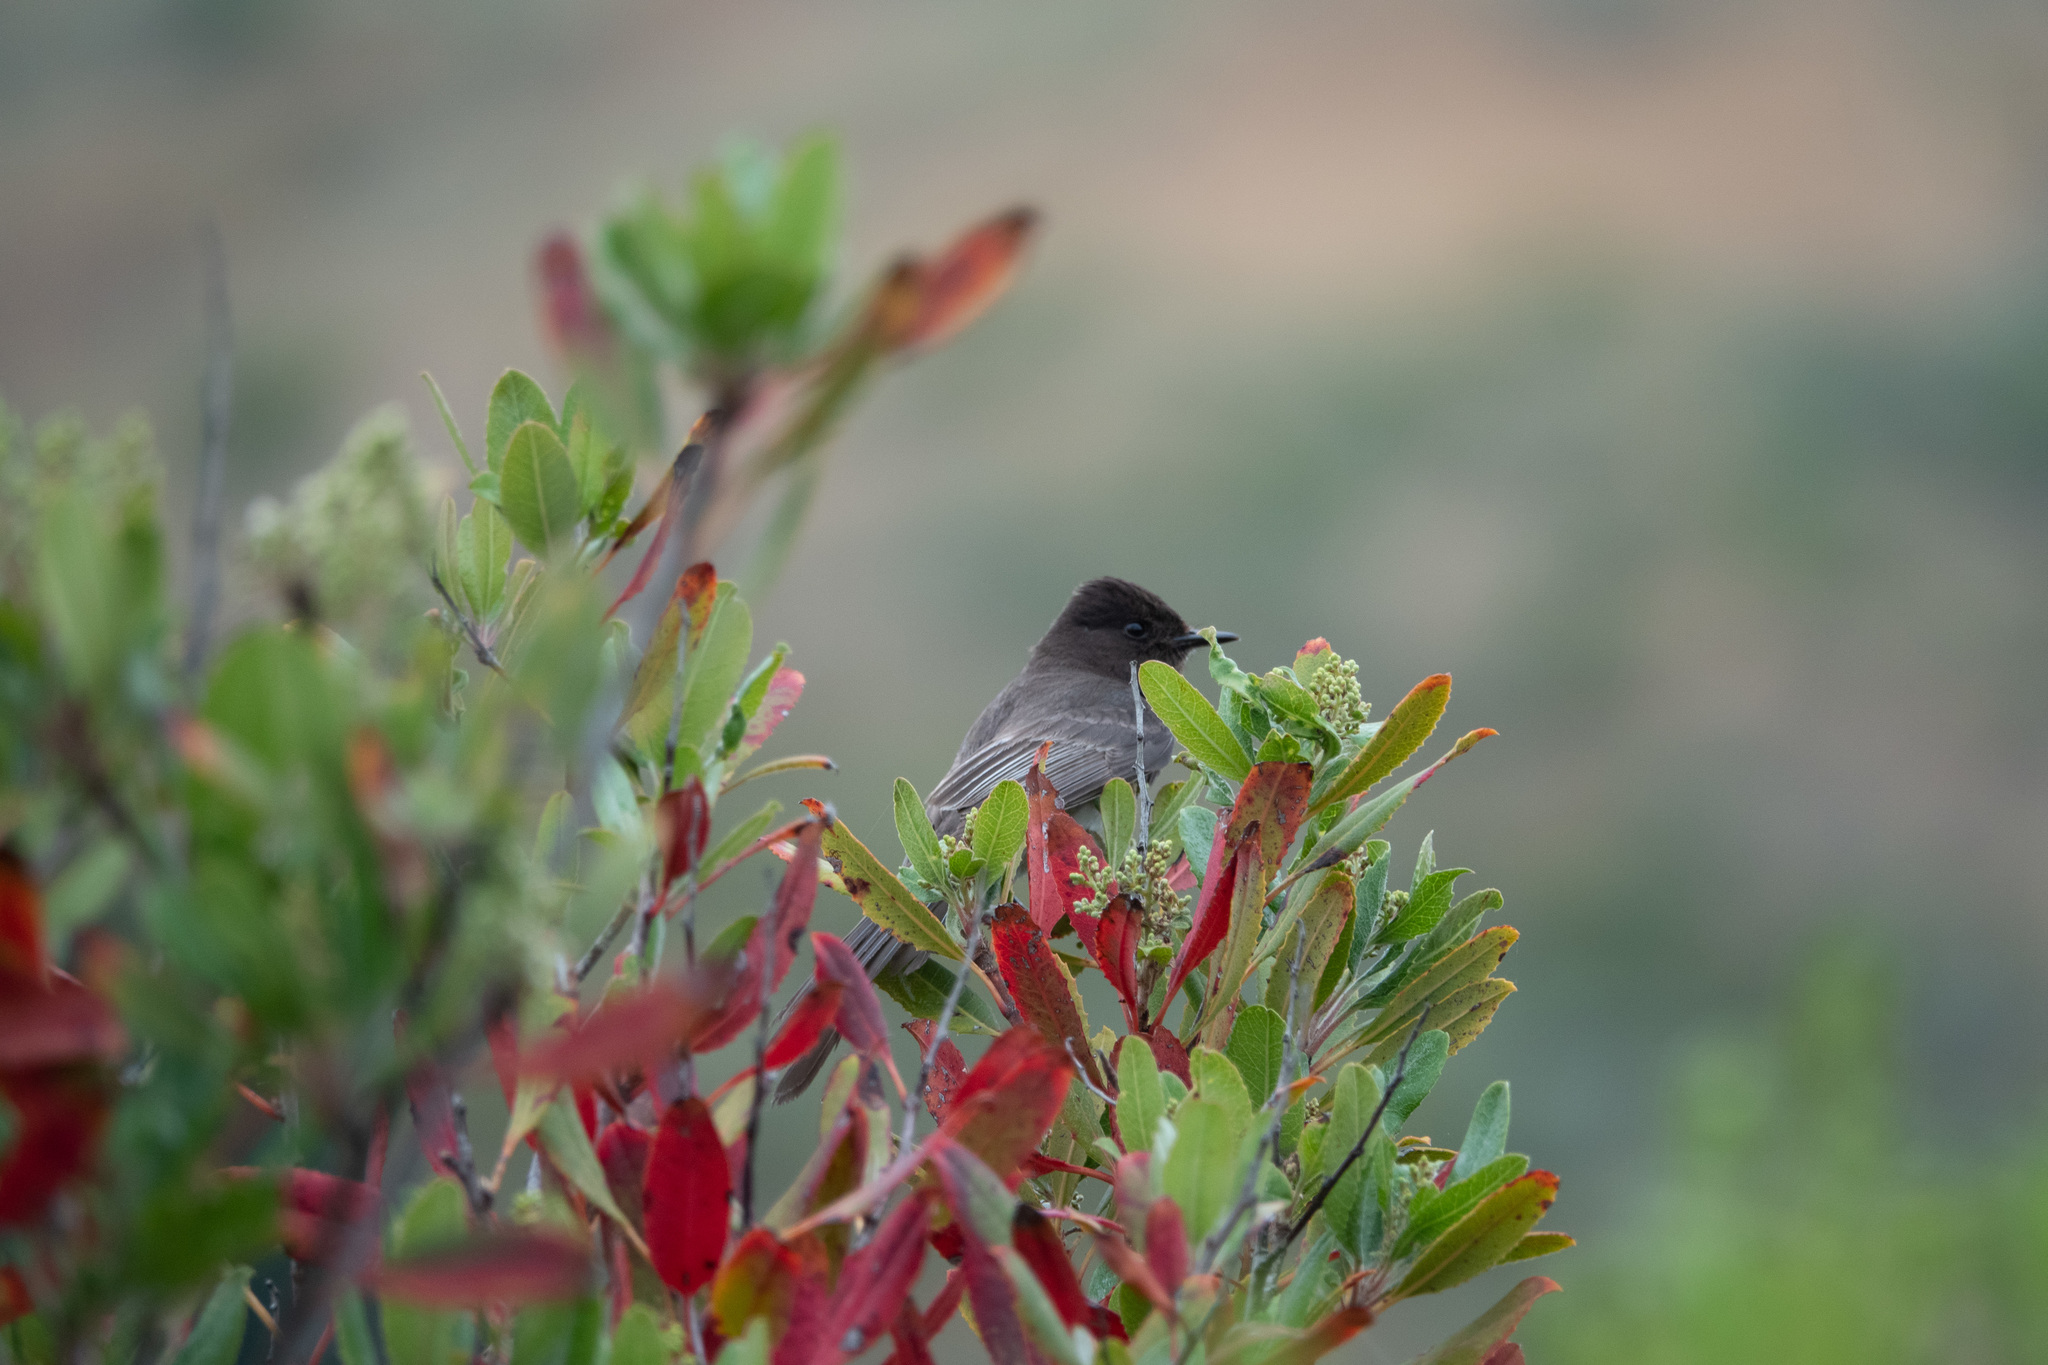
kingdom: Animalia
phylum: Chordata
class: Aves
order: Passeriformes
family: Tyrannidae
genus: Sayornis
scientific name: Sayornis nigricans
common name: Black phoebe
